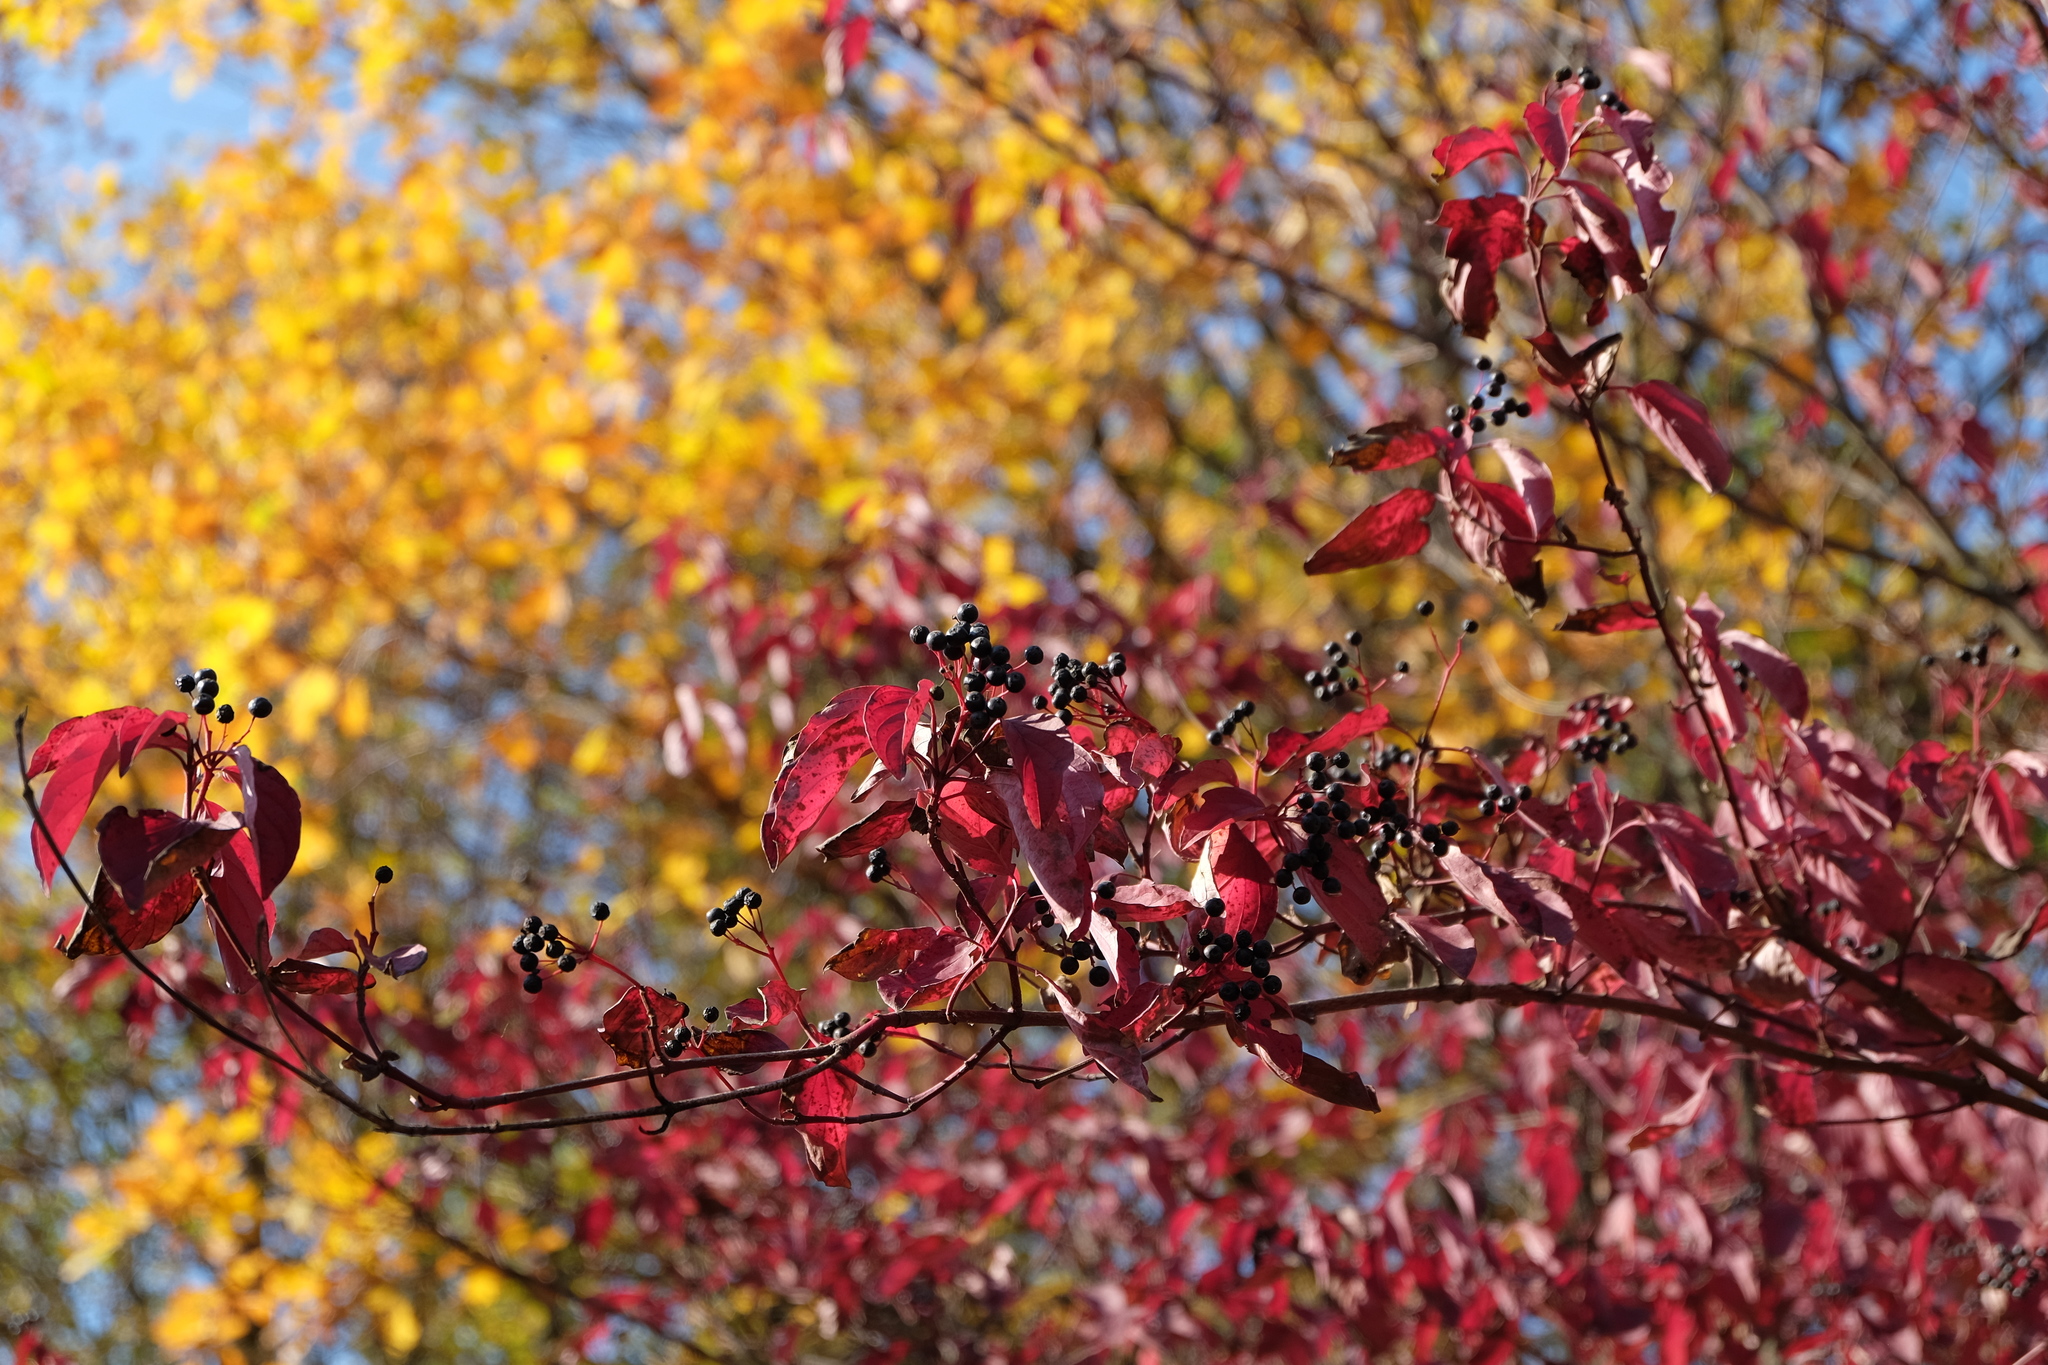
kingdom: Plantae
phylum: Tracheophyta
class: Magnoliopsida
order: Cornales
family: Cornaceae
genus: Cornus
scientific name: Cornus sanguinea
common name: Dogwood
